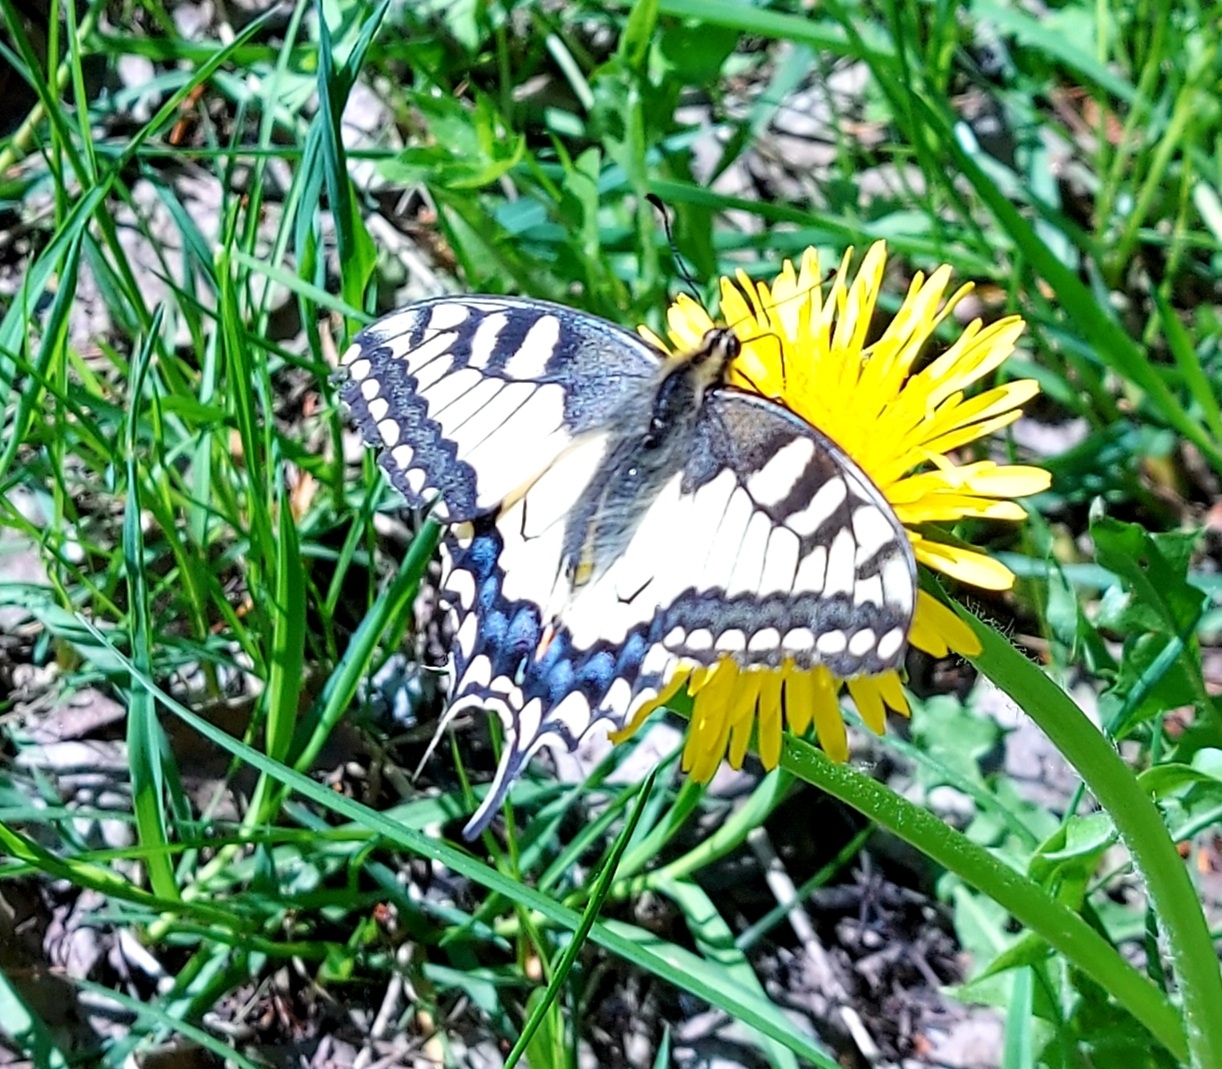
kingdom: Animalia
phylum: Arthropoda
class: Insecta
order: Lepidoptera
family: Papilionidae
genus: Papilio
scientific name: Papilio machaon
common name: Swallowtail
